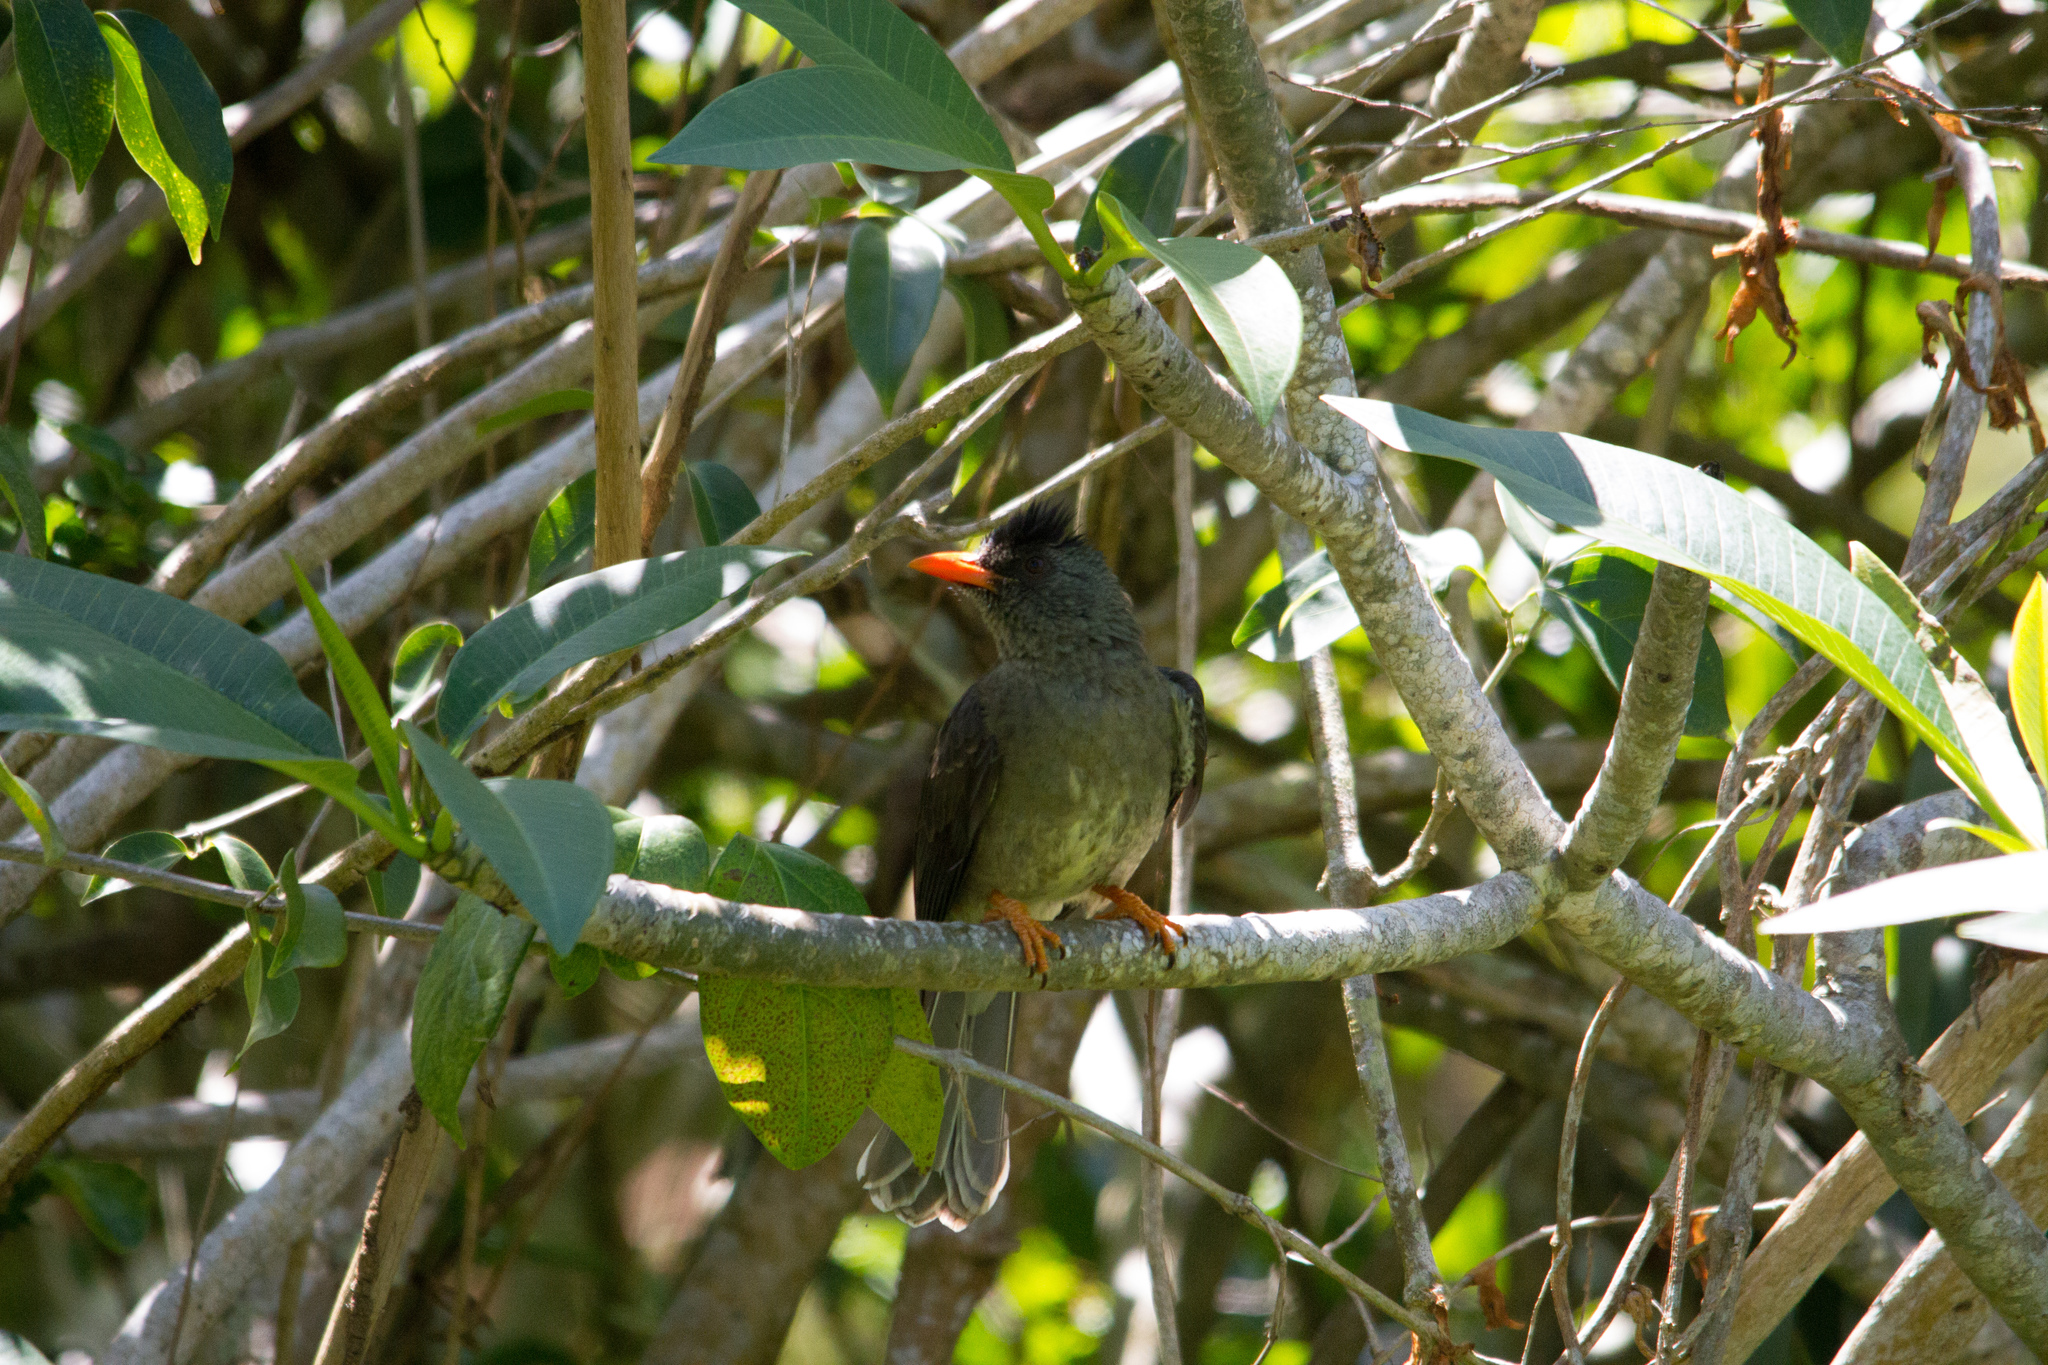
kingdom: Animalia
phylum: Chordata
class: Aves
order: Passeriformes
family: Pycnonotidae
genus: Hypsipetes
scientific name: Hypsipetes crassirostris
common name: Seychelles bulbul
